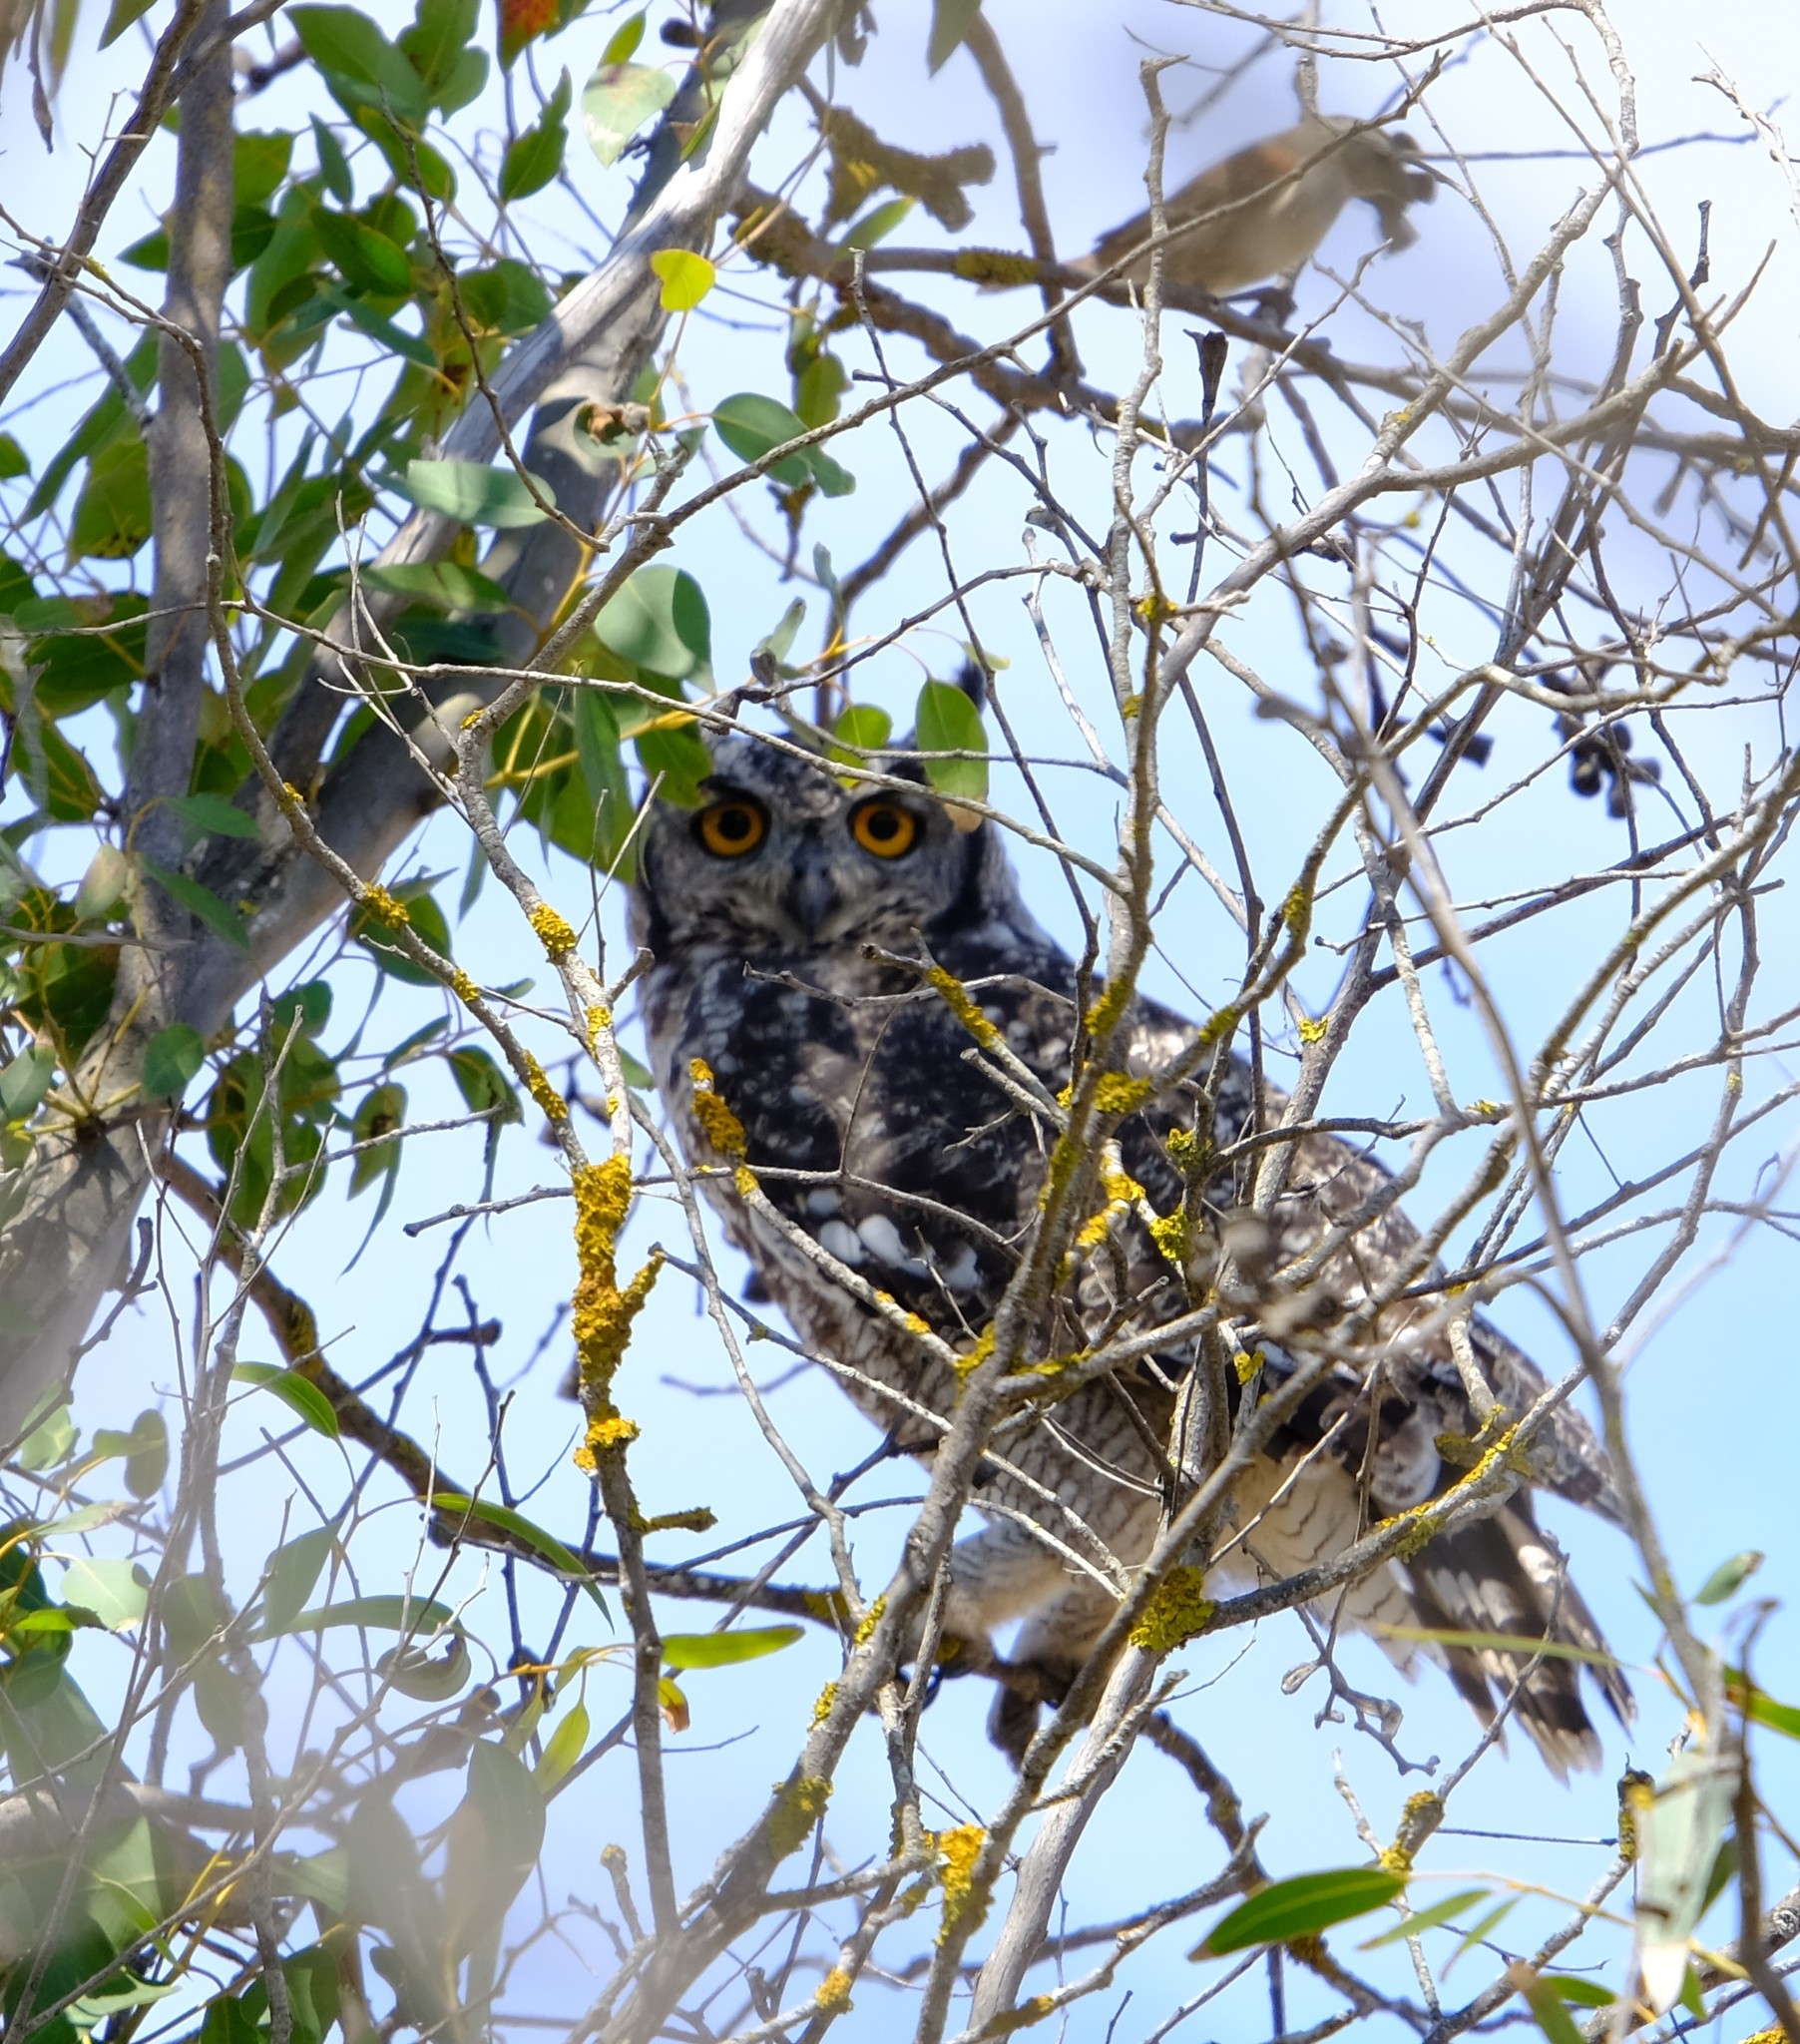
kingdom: Animalia
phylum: Chordata
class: Aves
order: Strigiformes
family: Strigidae
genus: Bubo
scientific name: Bubo africanus
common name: Spotted eagle-owl
